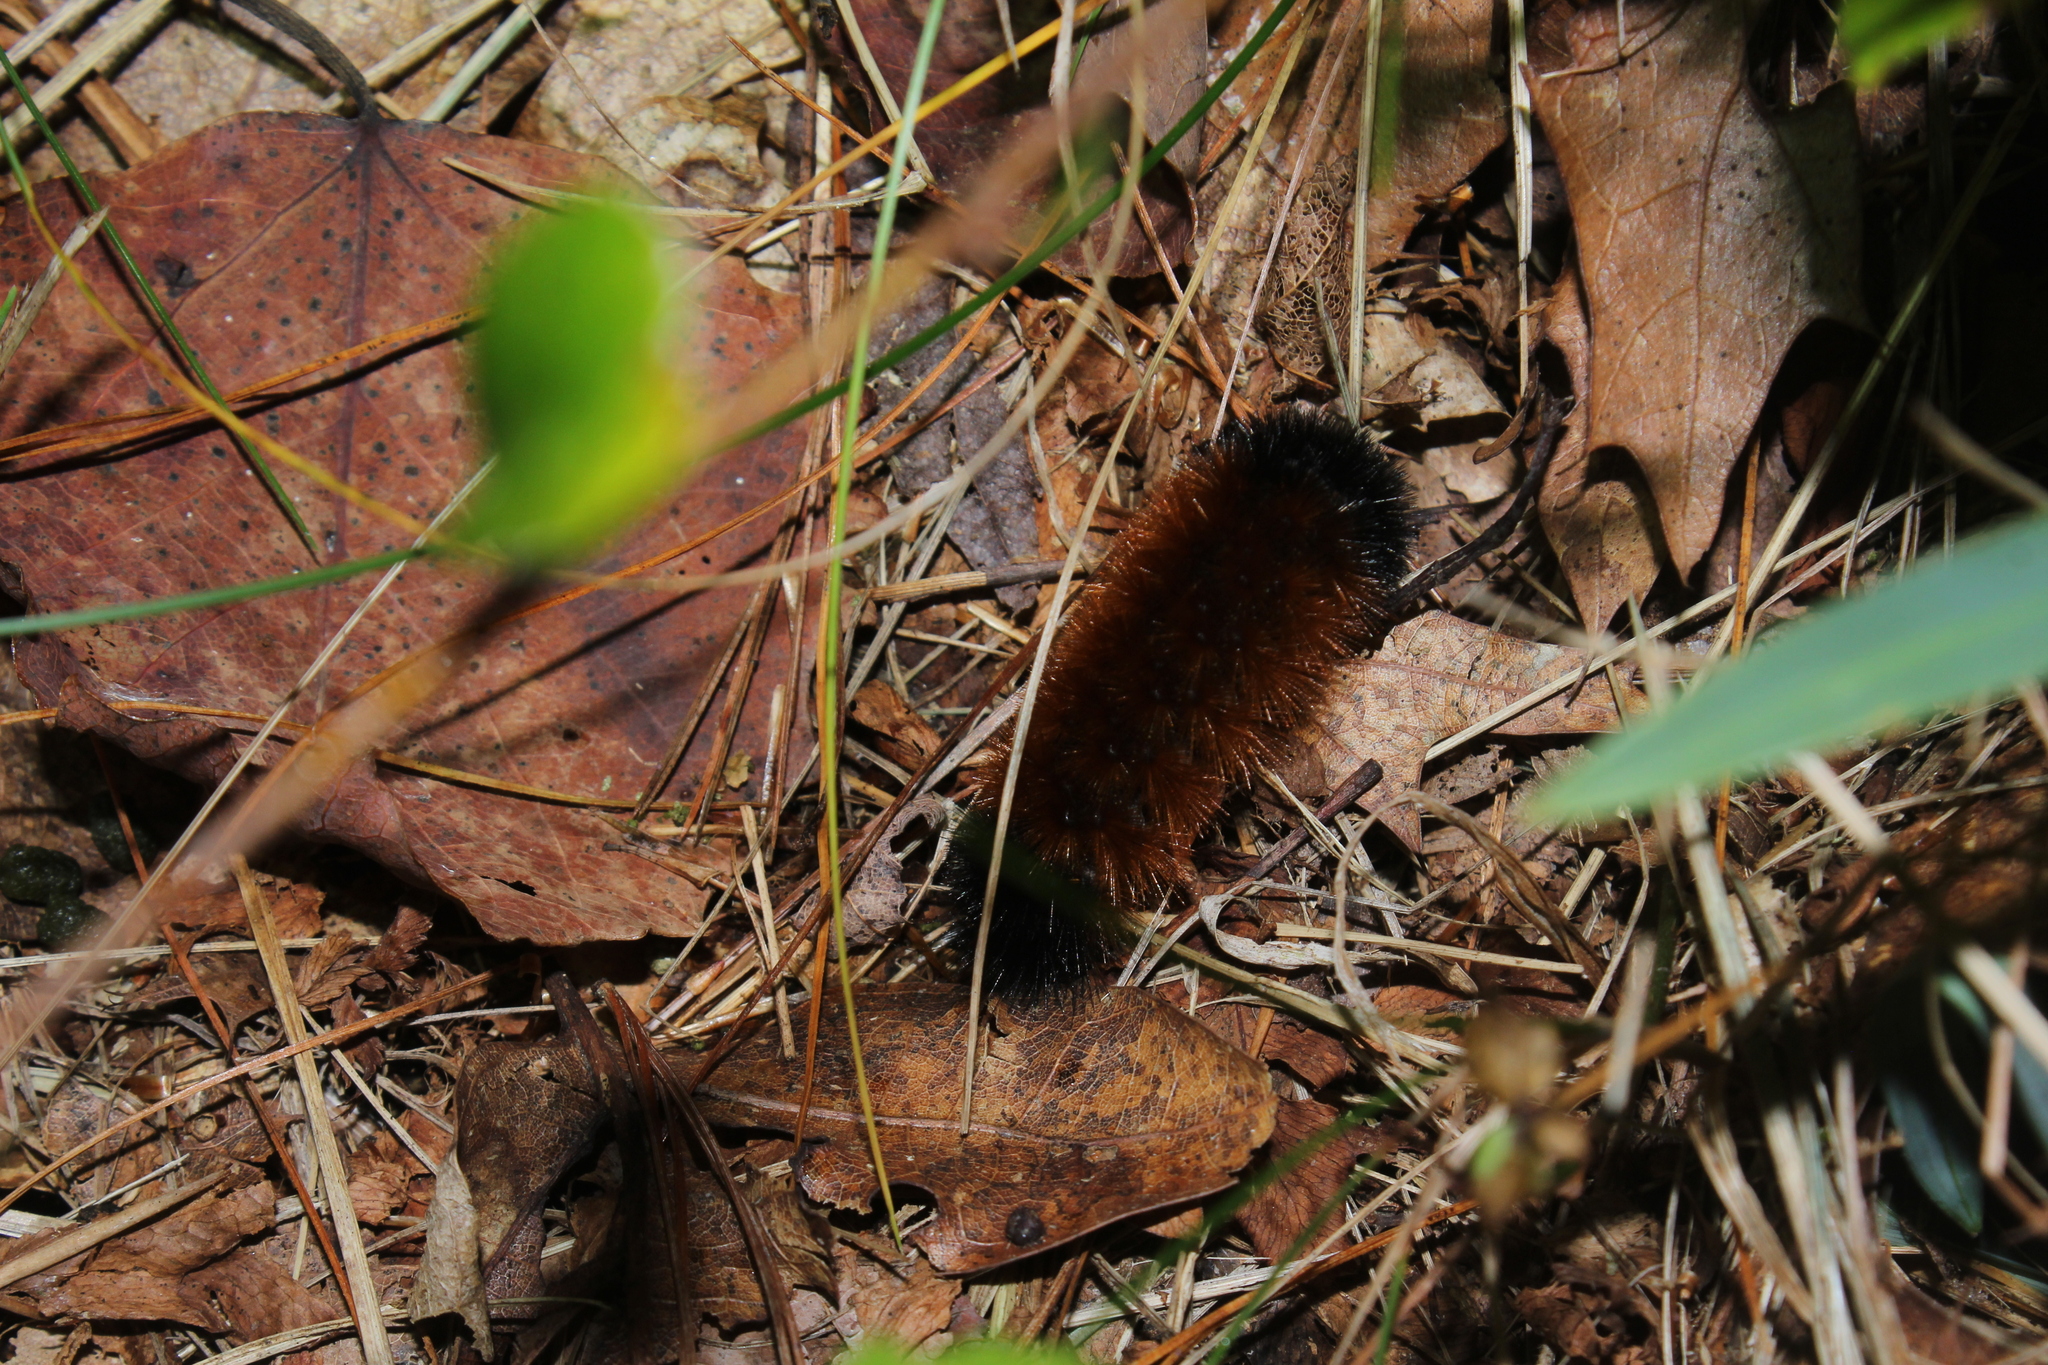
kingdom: Animalia
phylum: Arthropoda
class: Insecta
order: Lepidoptera
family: Erebidae
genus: Pyrrharctia
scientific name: Pyrrharctia isabella
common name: Isabella tiger moth
